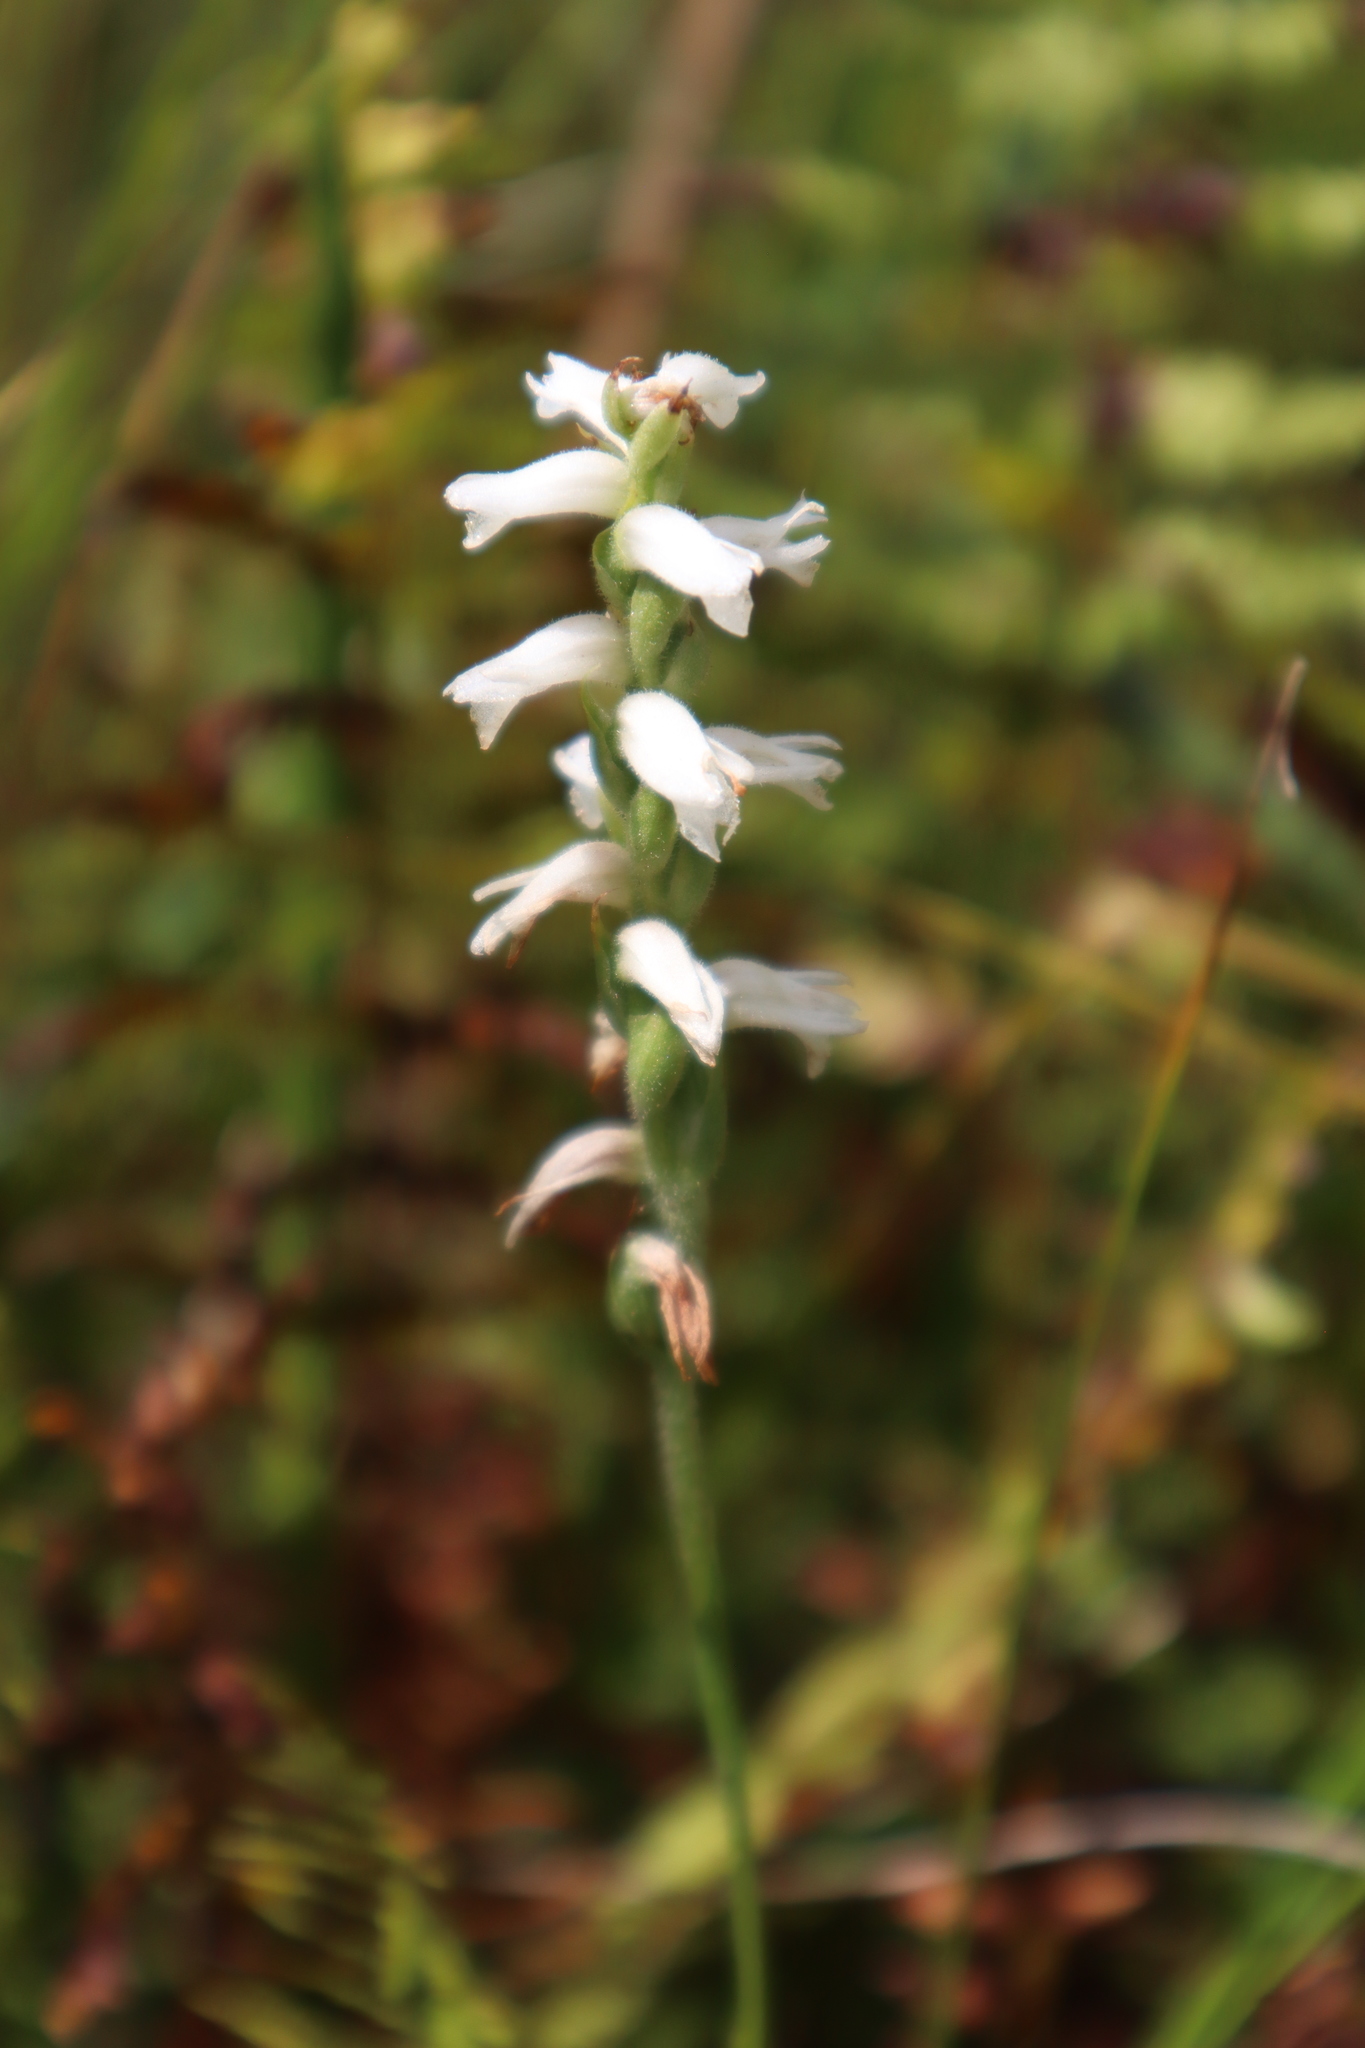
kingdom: Plantae
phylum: Tracheophyta
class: Liliopsida
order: Asparagales
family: Orchidaceae
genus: Spiranthes
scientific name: Spiranthes incurva
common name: Sphinx ladies'-tresses
